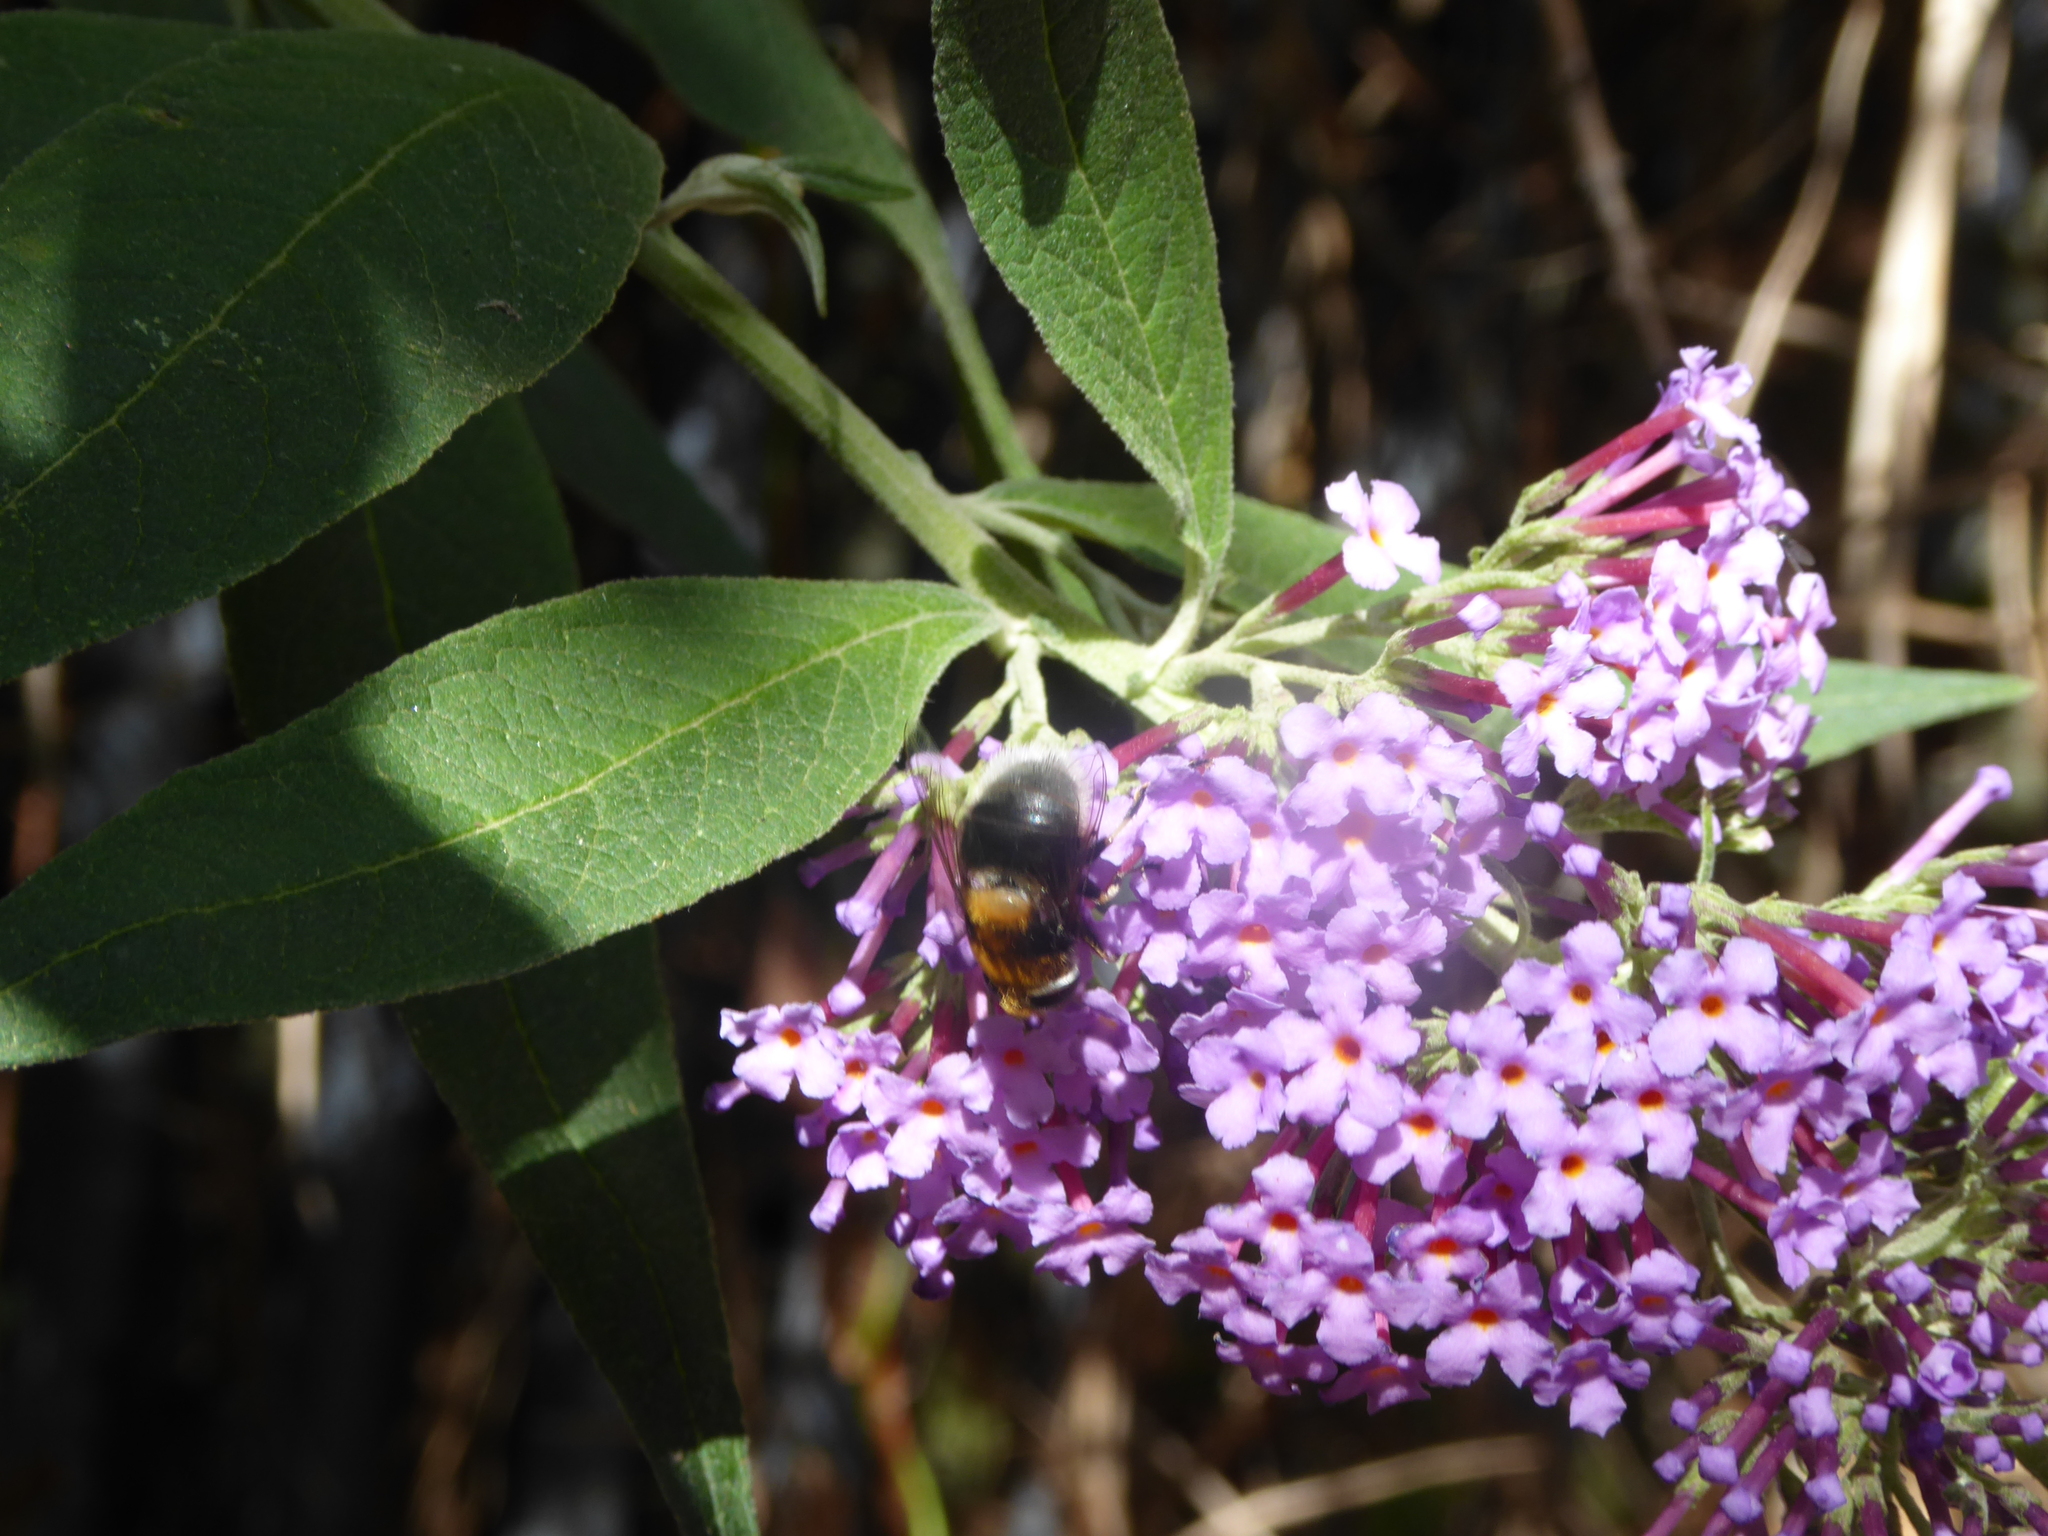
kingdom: Animalia
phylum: Arthropoda
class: Insecta
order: Diptera
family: Syrphidae
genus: Eristalis
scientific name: Eristalis intricaria
